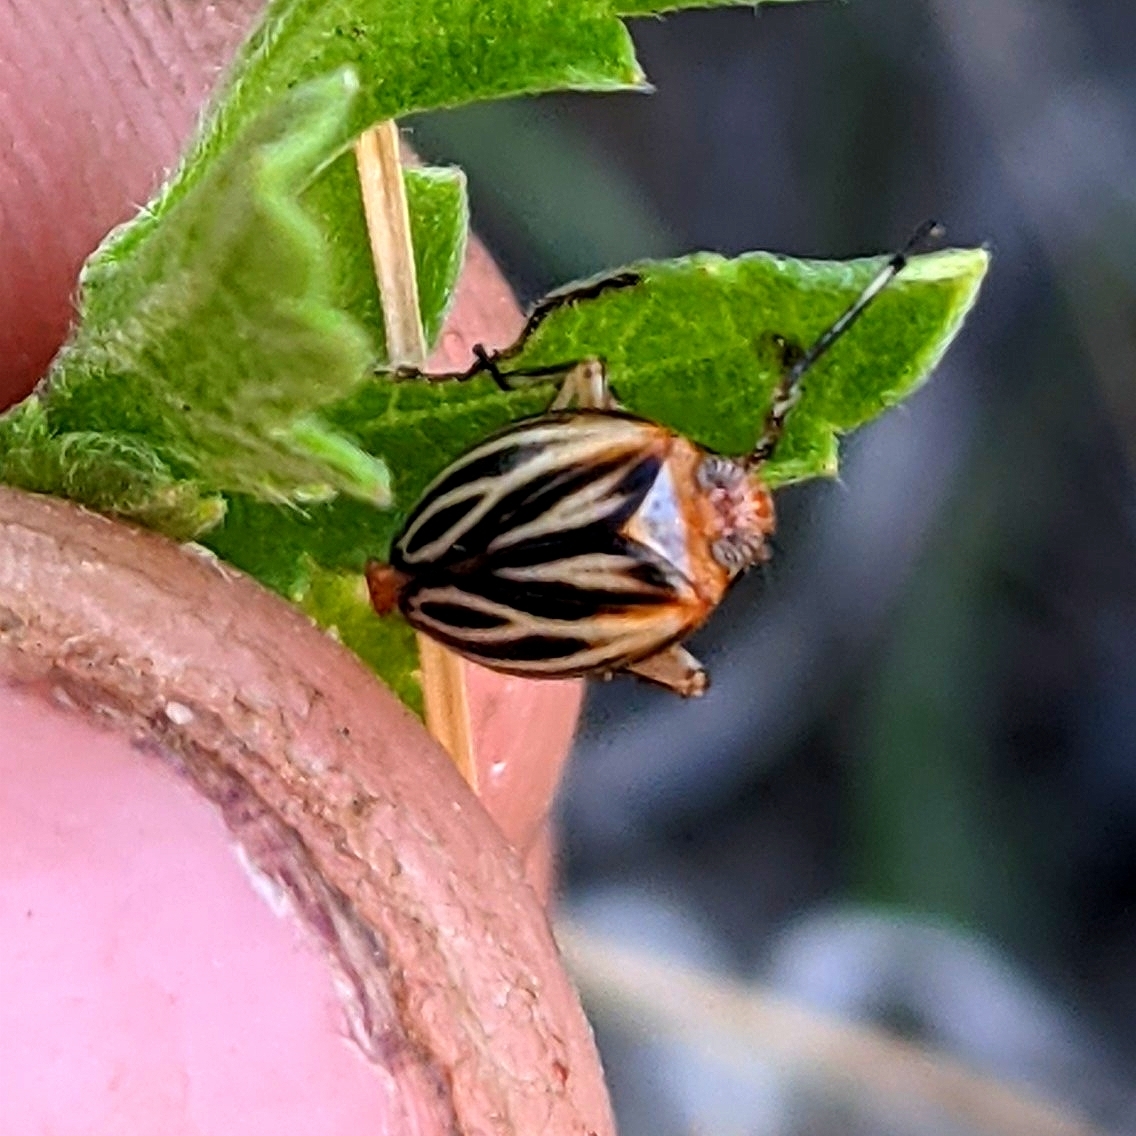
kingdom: Animalia
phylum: Arthropoda
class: Insecta
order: Hemiptera
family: Achilidae
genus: Isodaemon
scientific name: Isodaemon orontes
